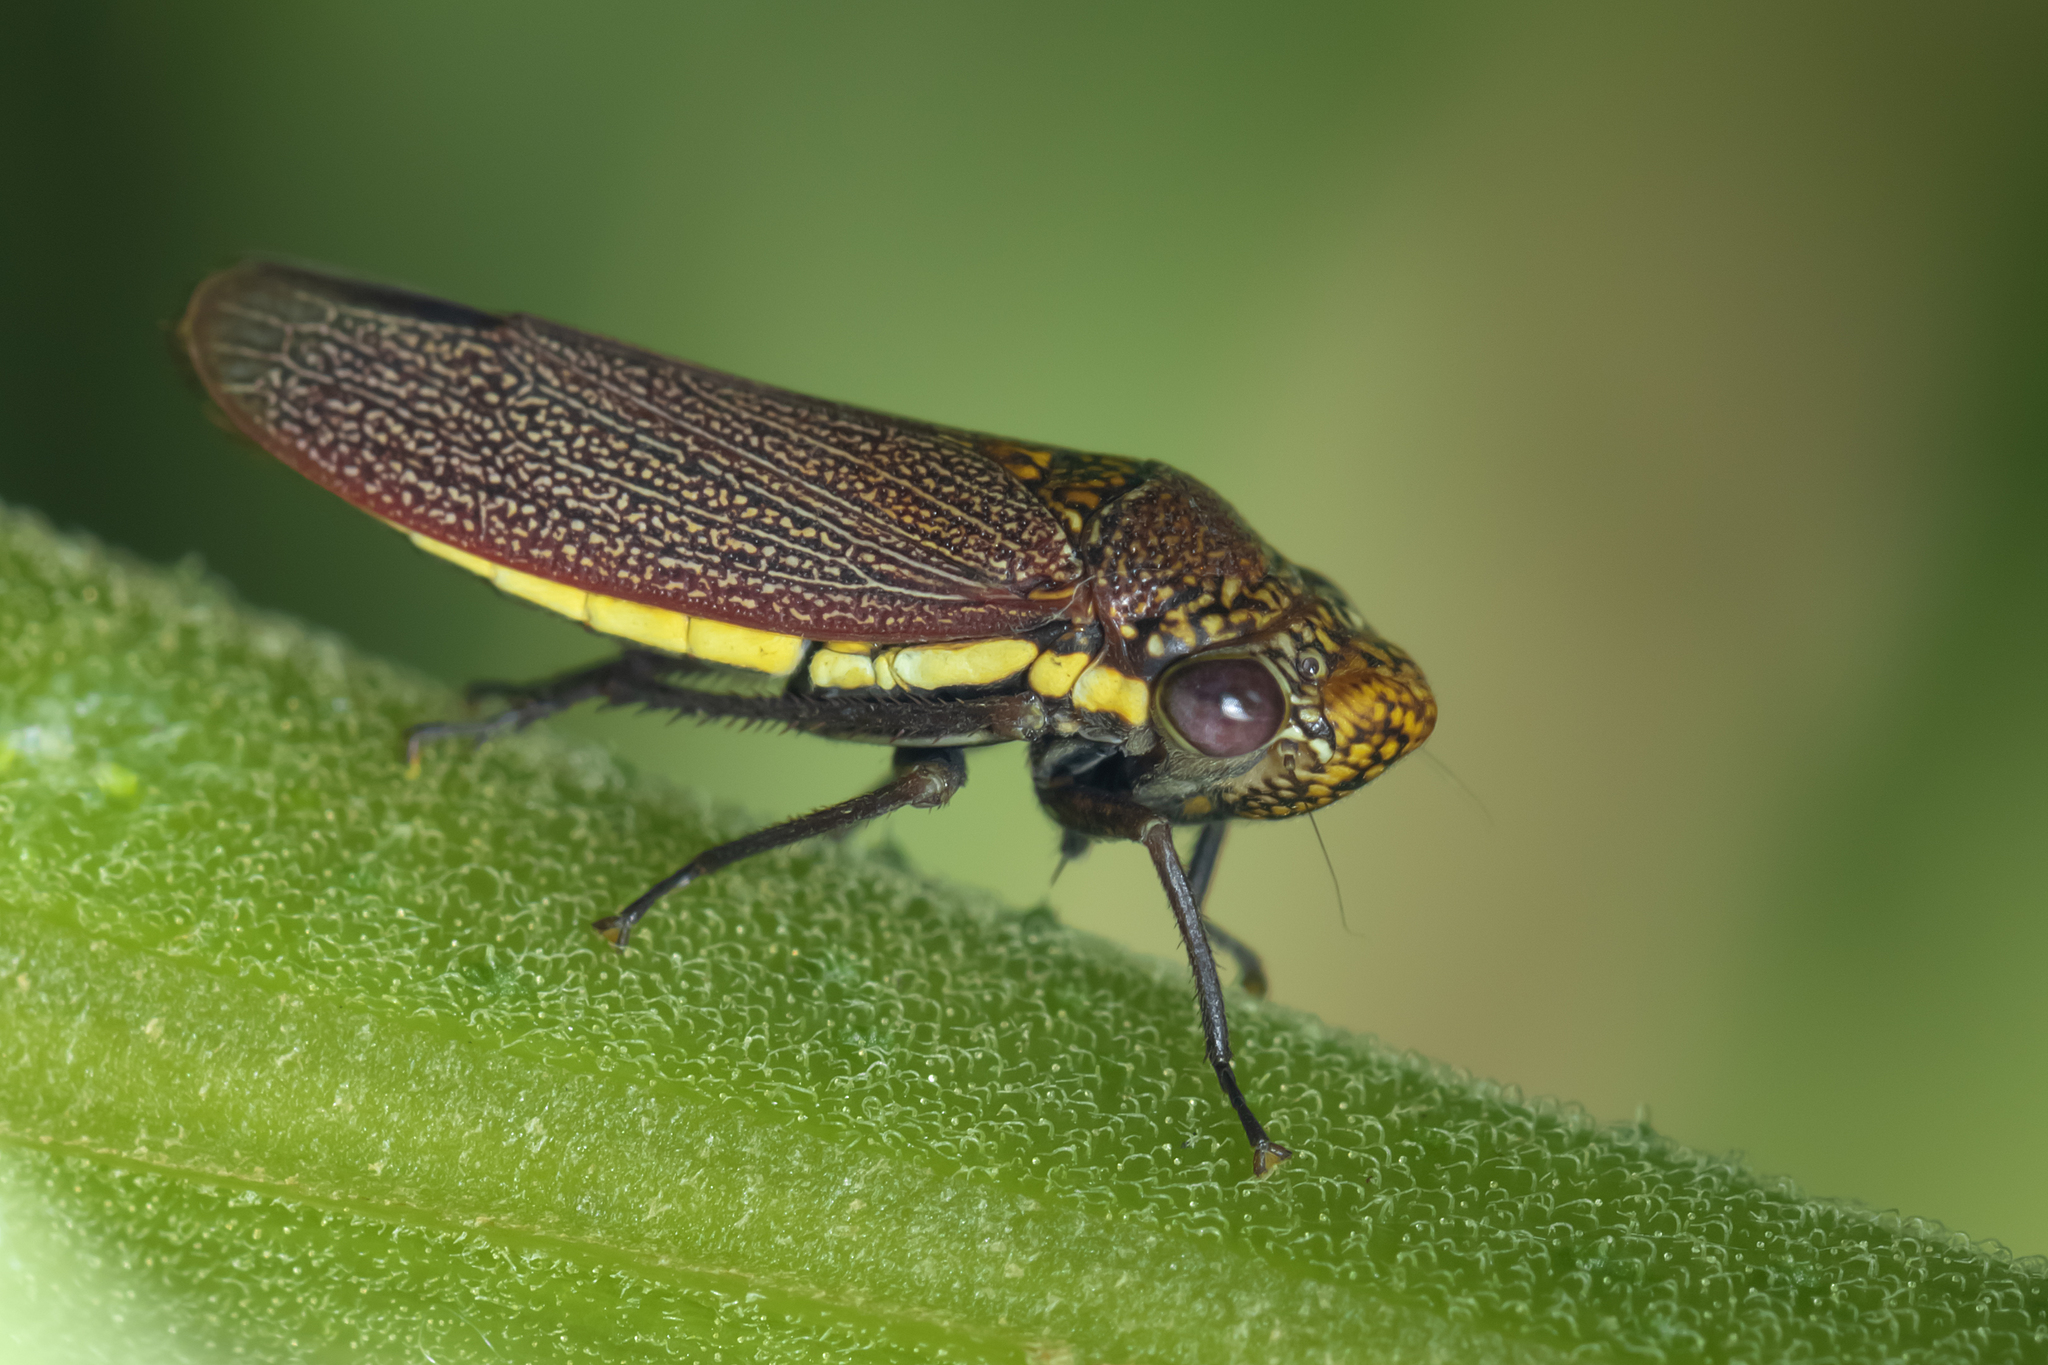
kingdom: Animalia
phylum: Arthropoda
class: Insecta
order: Hemiptera
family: Cicadellidae
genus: Tapajosa
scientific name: Tapajosa rubromarginata
